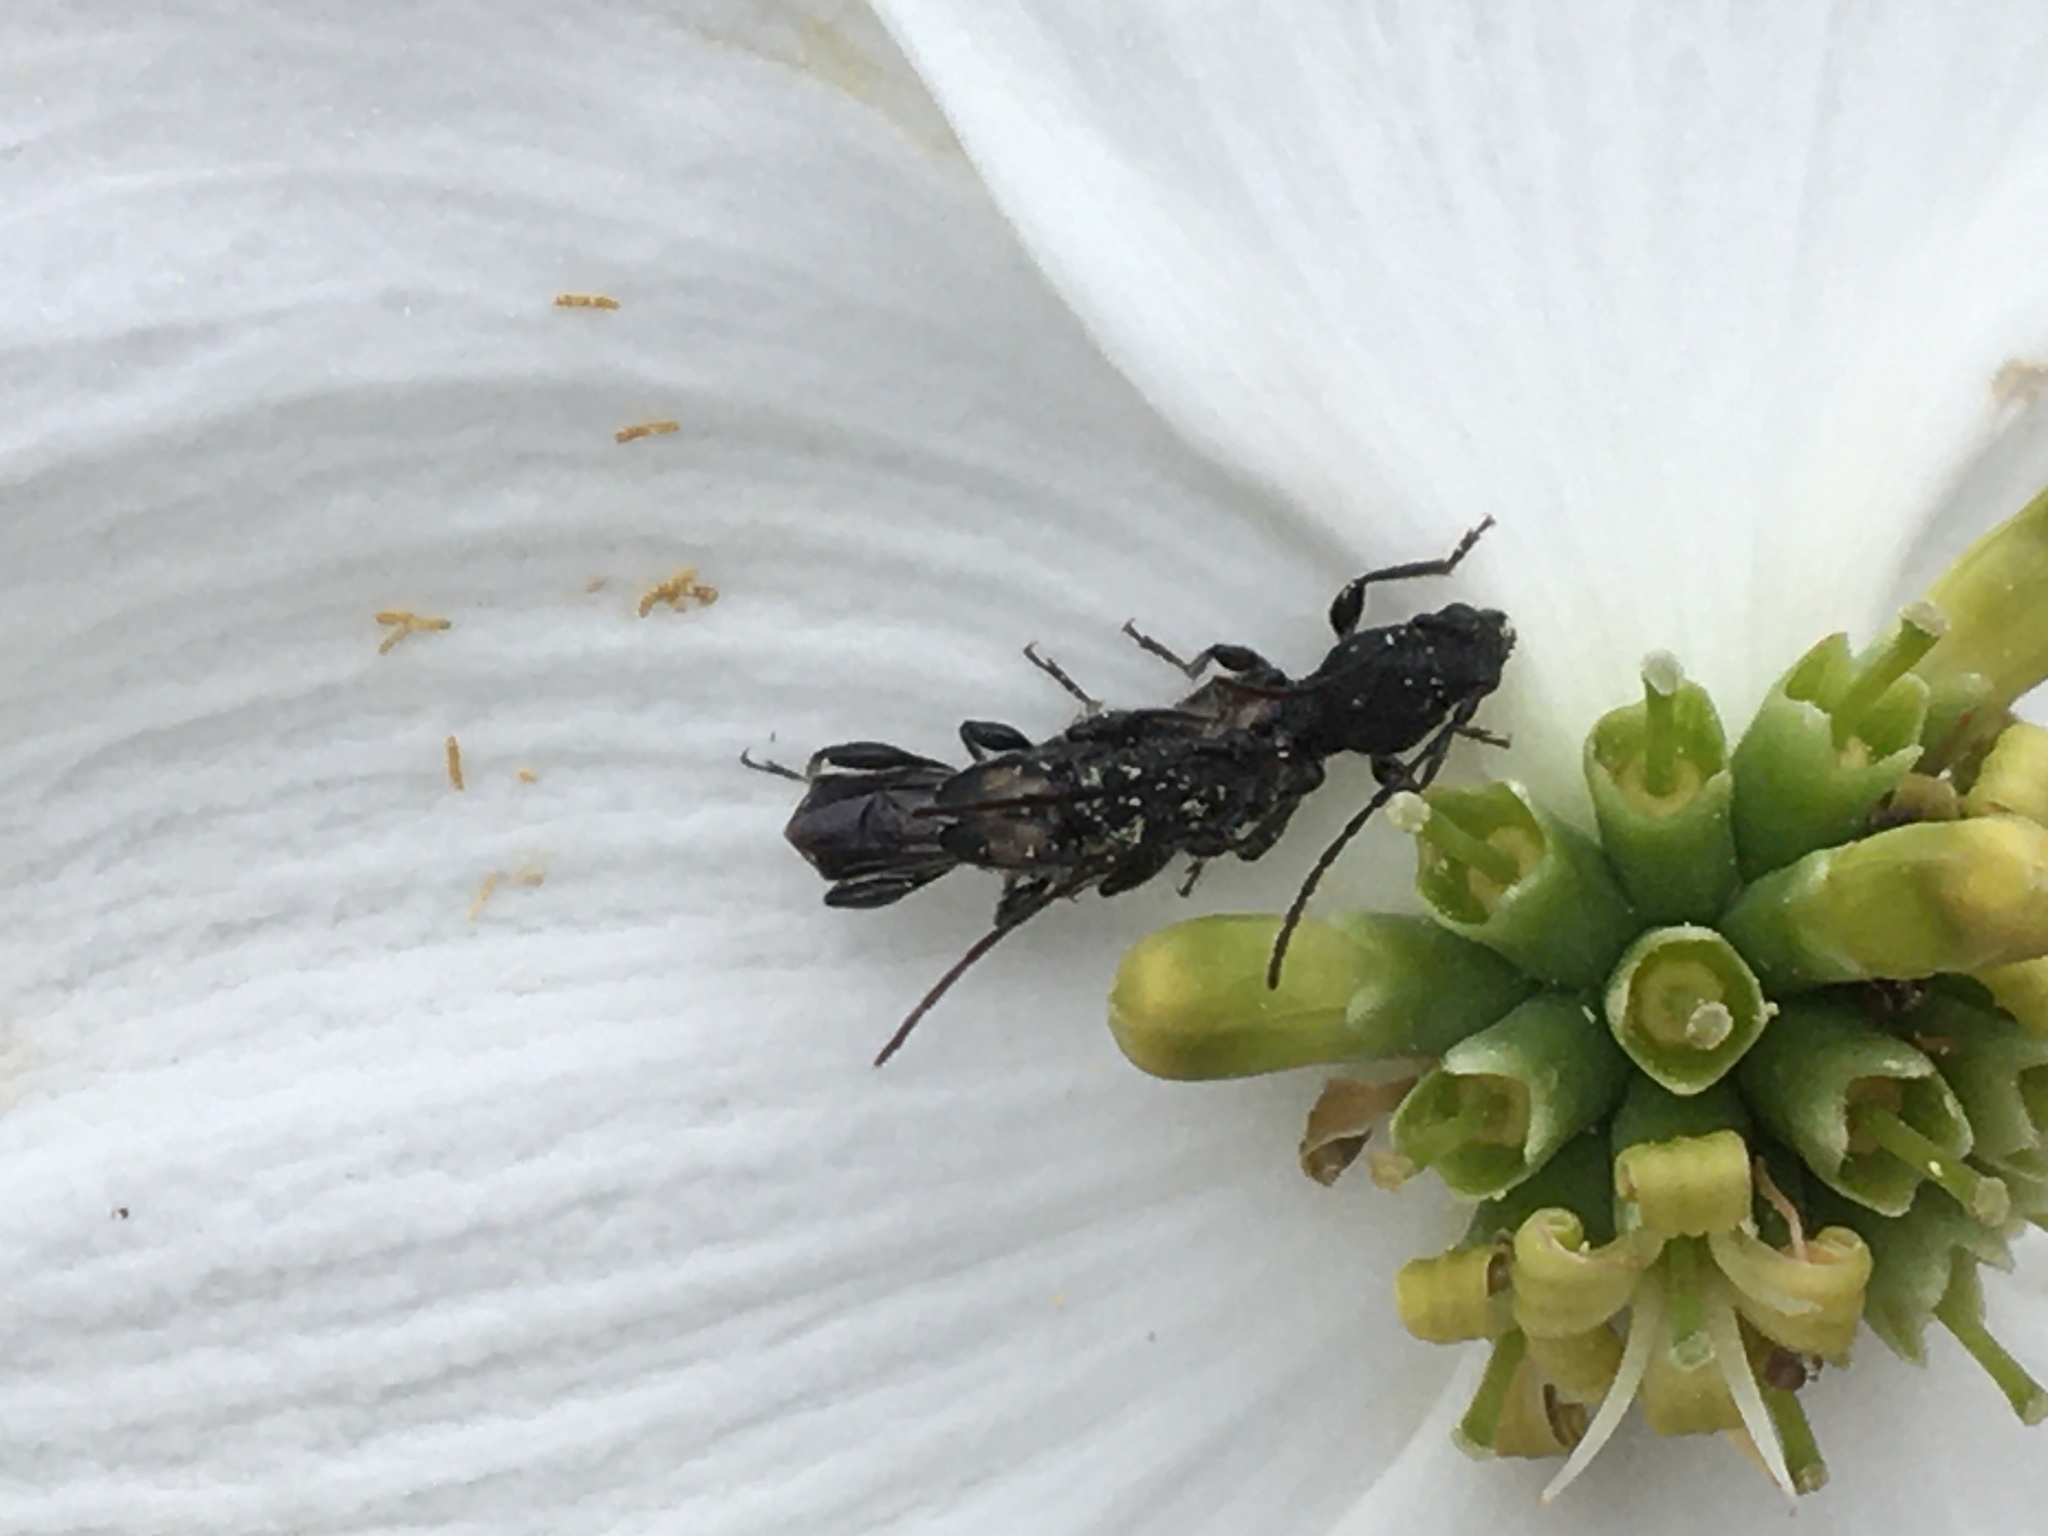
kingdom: Animalia
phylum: Arthropoda
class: Insecta
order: Coleoptera
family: Cerambycidae
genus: Molorchus
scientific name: Molorchus bimaculatus
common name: Bimaculate longhorn beetle
